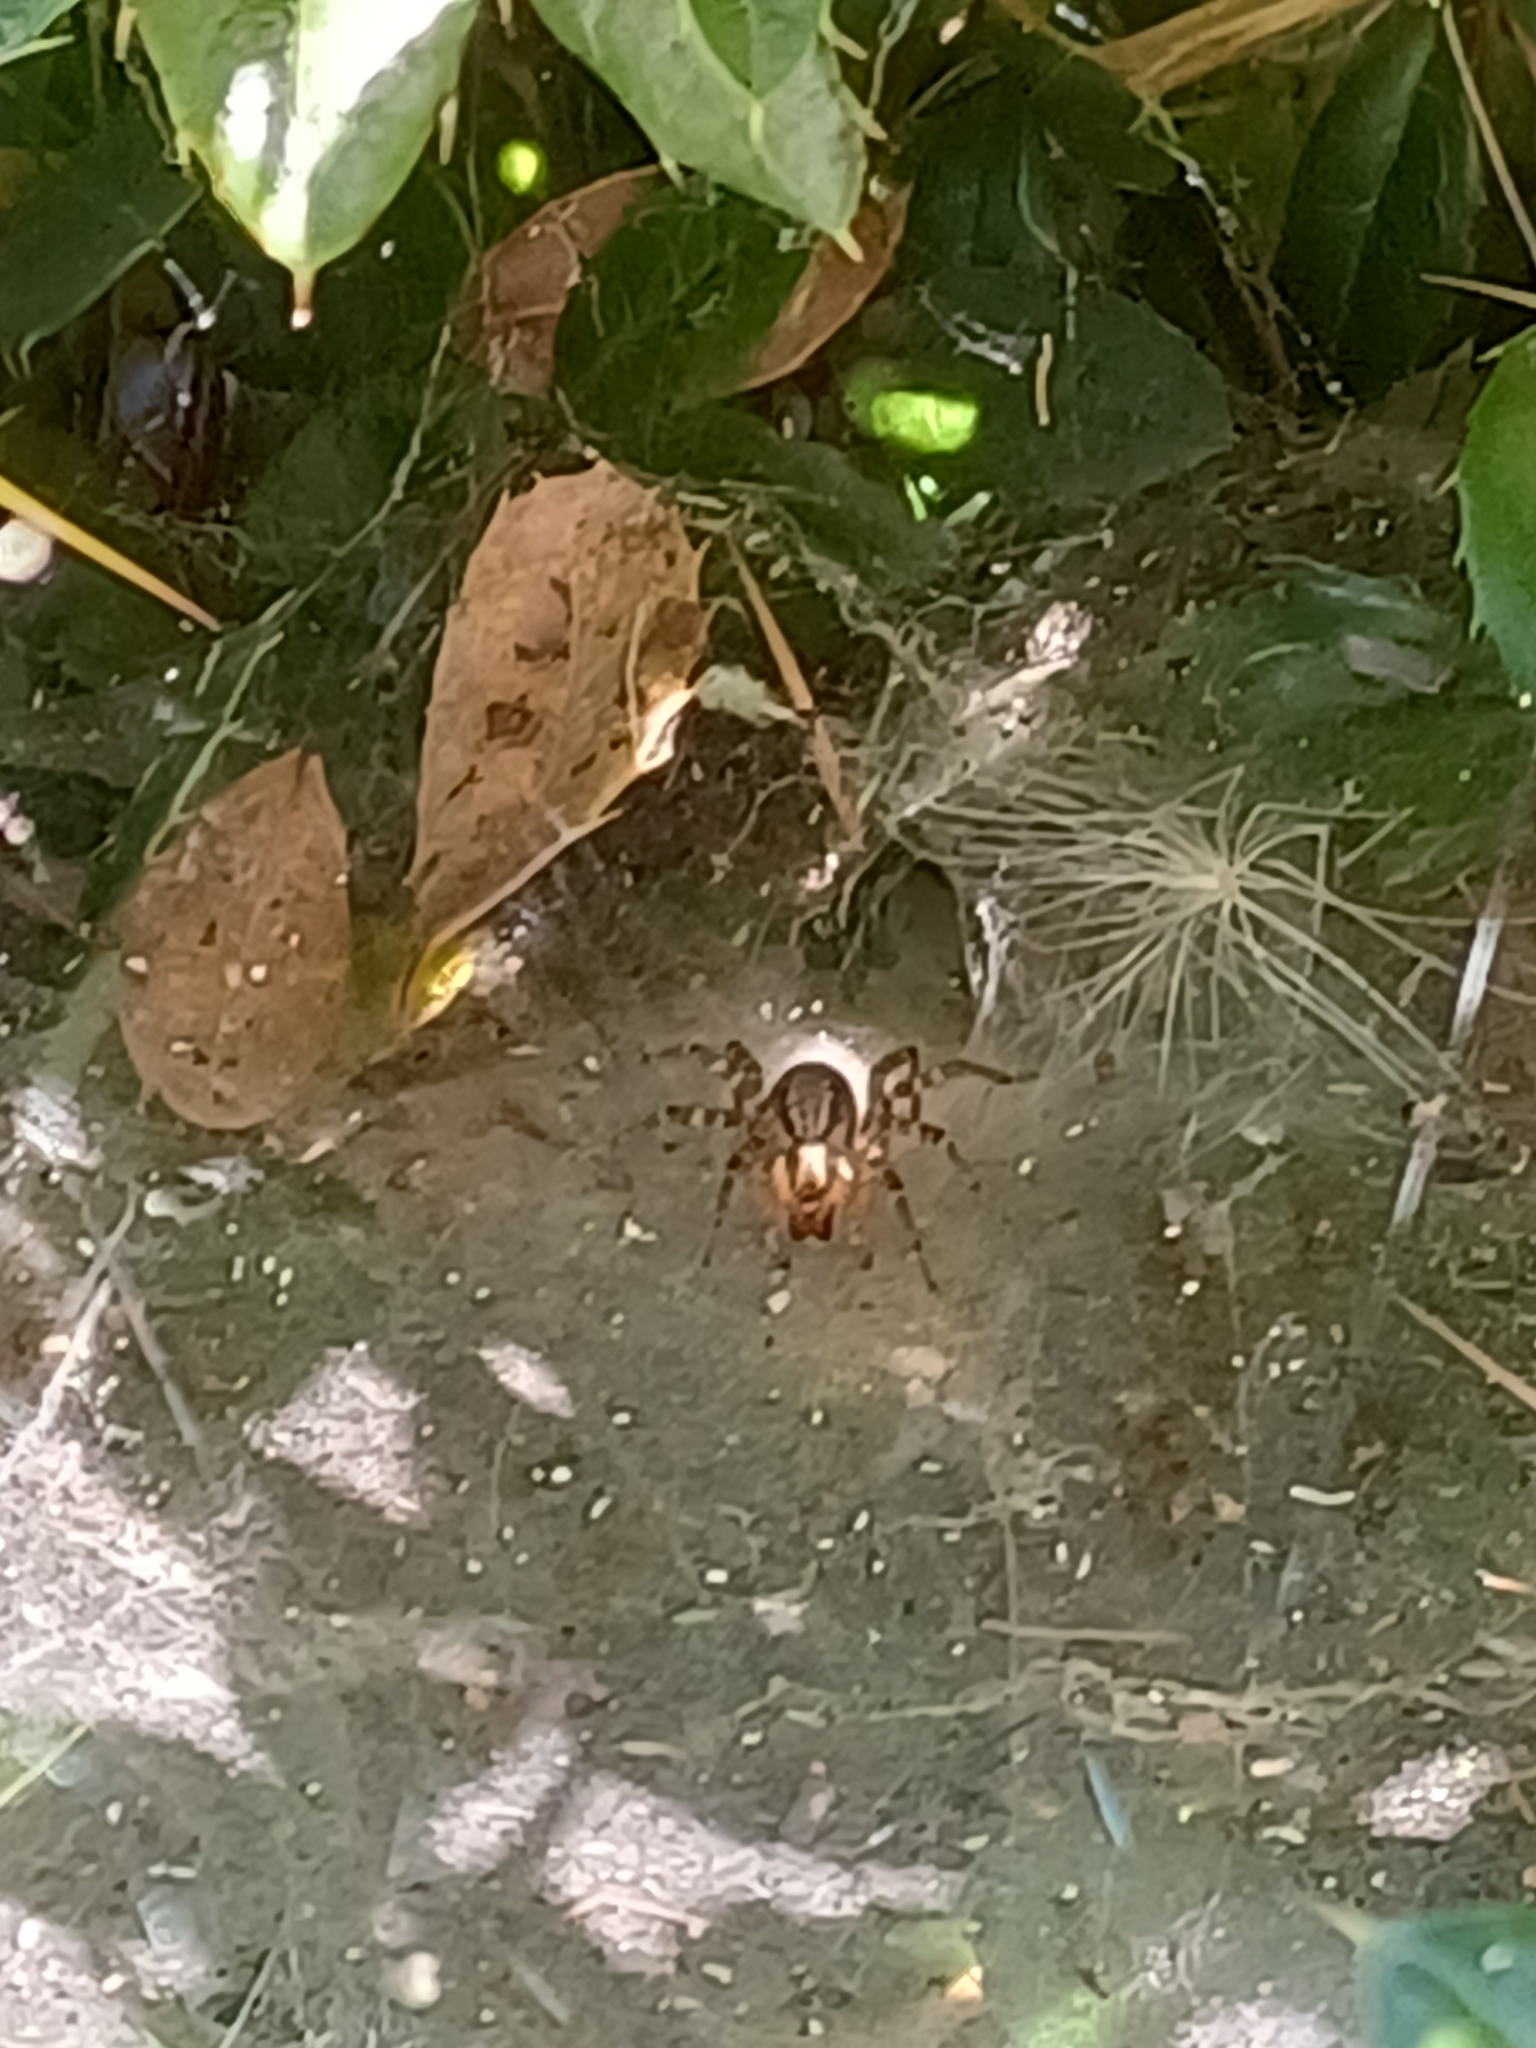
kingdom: Animalia
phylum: Arthropoda
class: Arachnida
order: Araneae
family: Agelenidae
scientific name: Agelenidae
